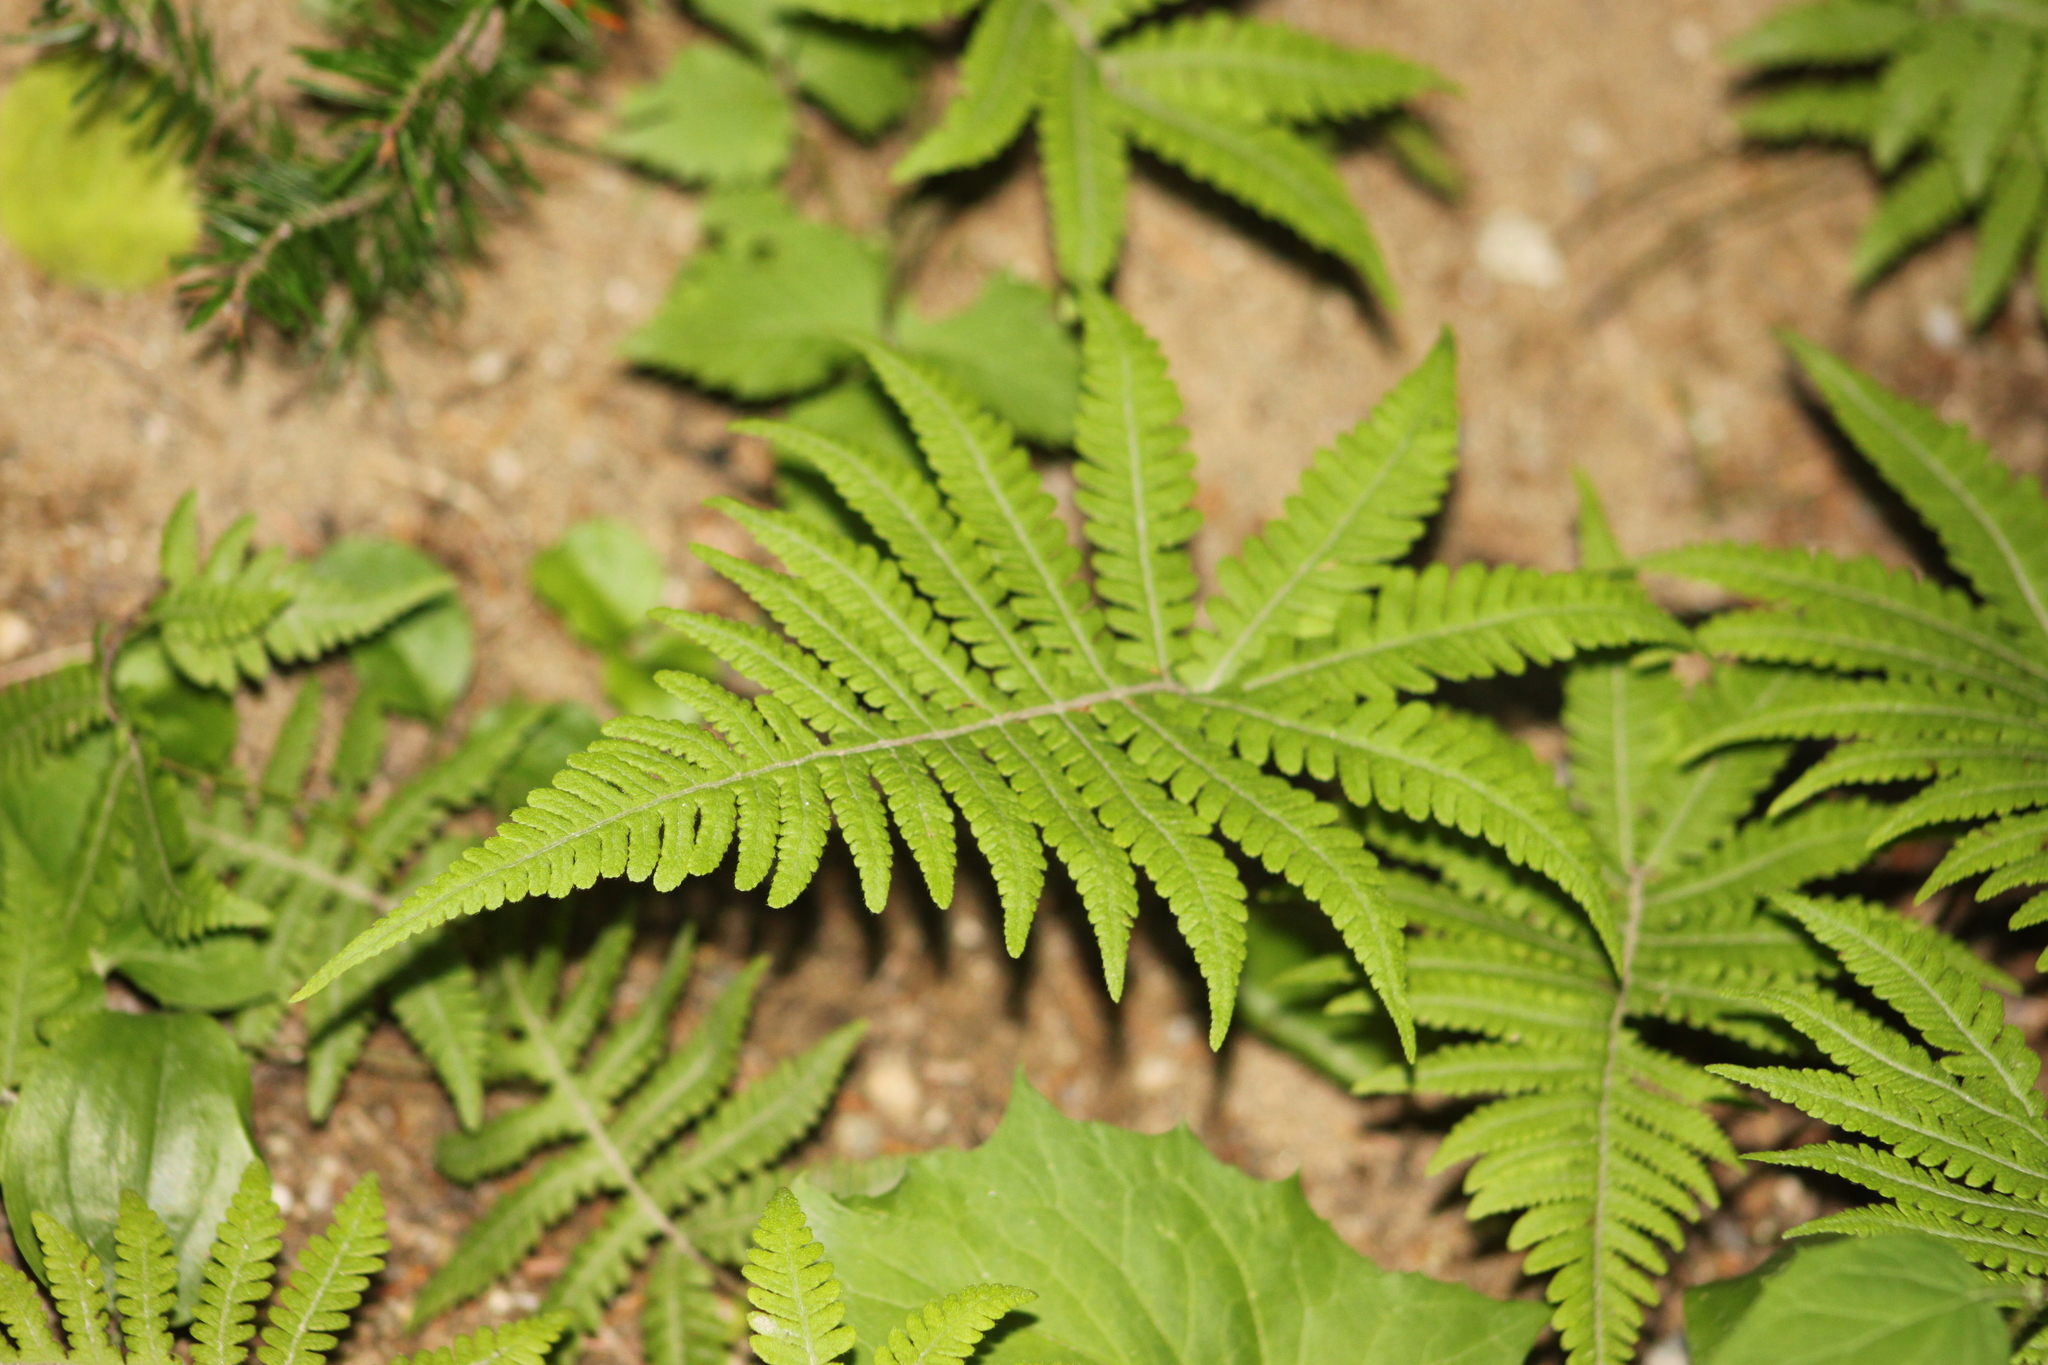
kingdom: Plantae
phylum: Tracheophyta
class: Polypodiopsida
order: Polypodiales
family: Thelypteridaceae
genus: Phegopteris
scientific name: Phegopteris connectilis
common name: Beech fern
